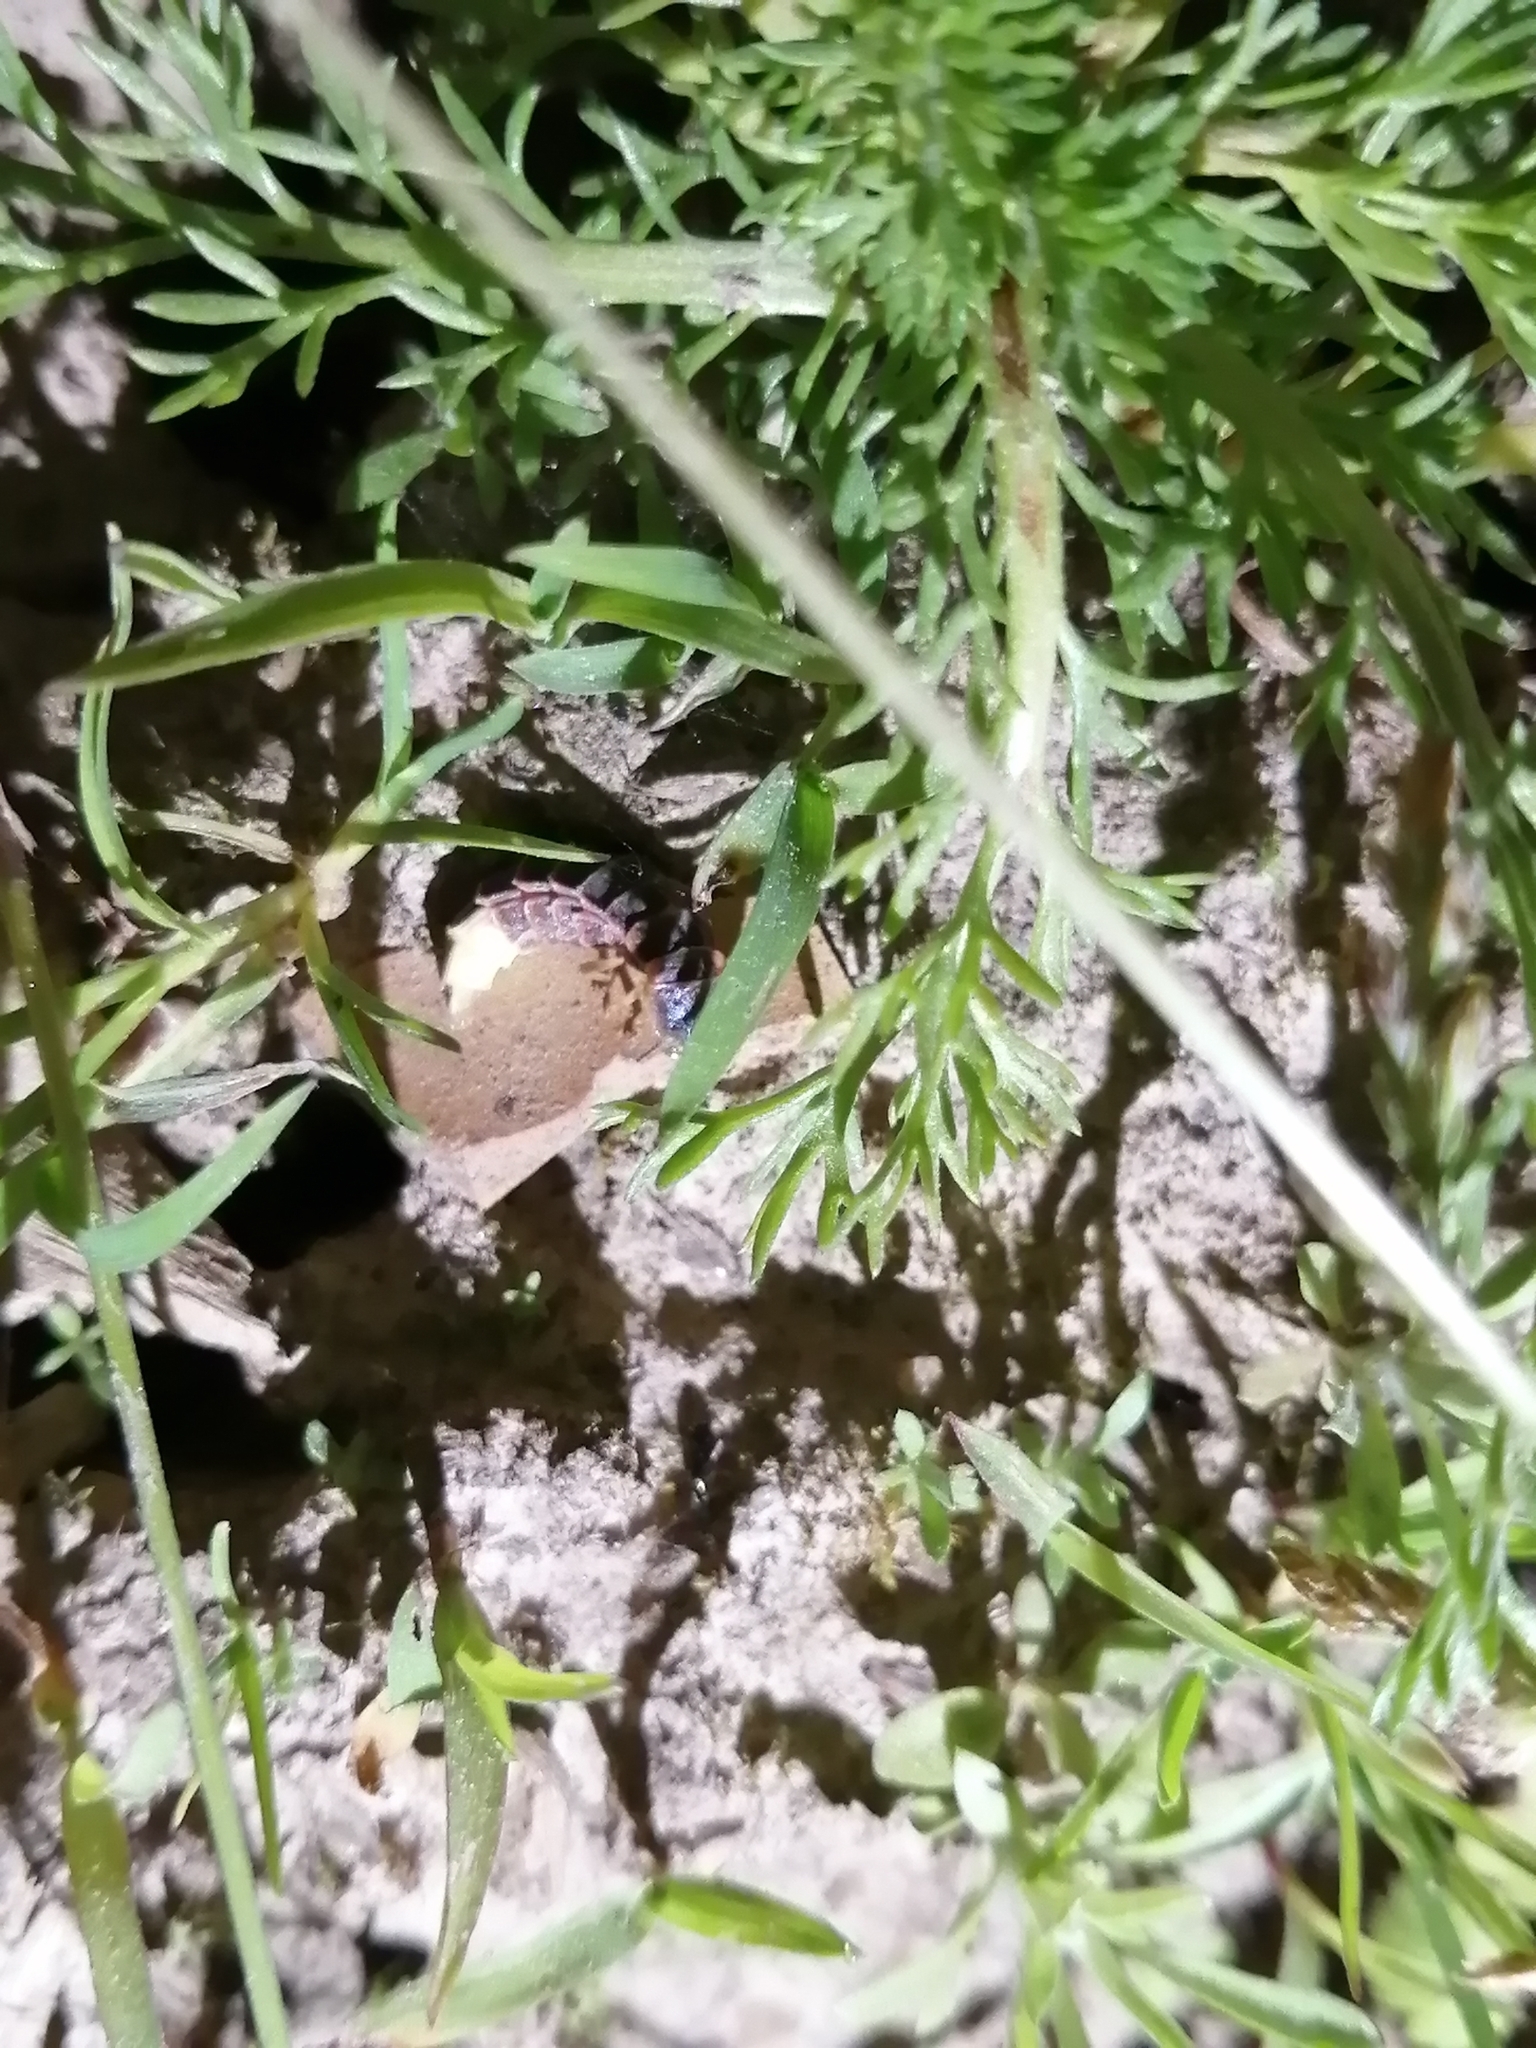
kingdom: Animalia
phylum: Arthropoda
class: Insecta
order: Coleoptera
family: Lampyridae
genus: Lampyris
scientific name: Lampyris noctiluca
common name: Glow-worm
